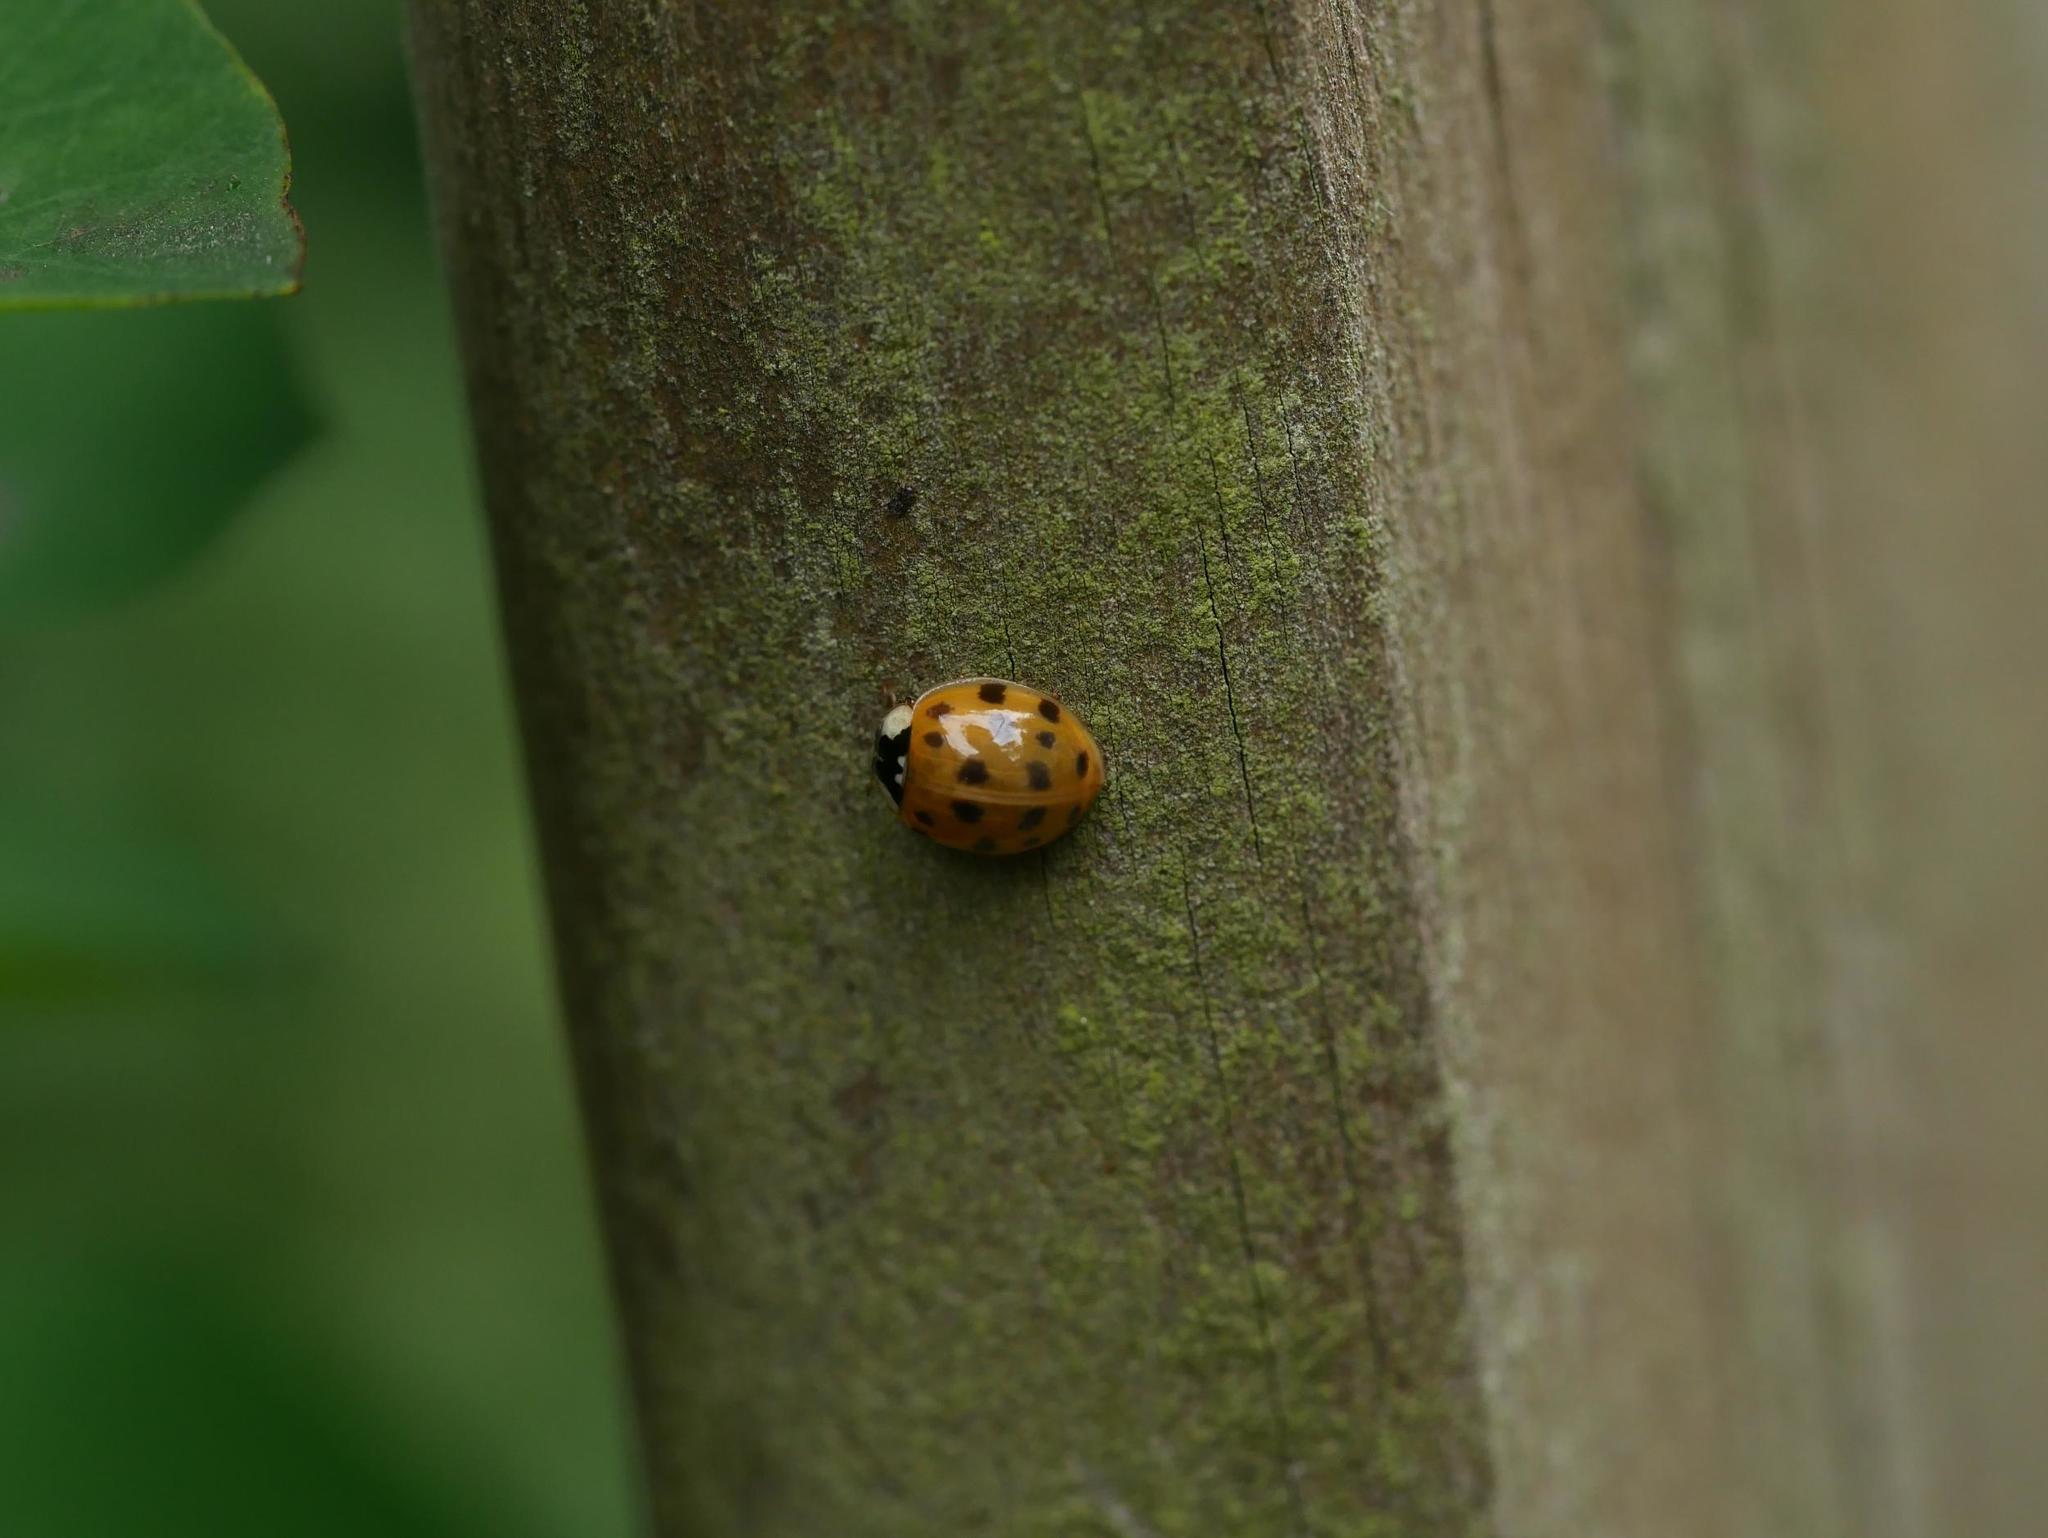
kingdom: Animalia
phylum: Arthropoda
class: Insecta
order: Coleoptera
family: Coccinellidae
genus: Harmonia
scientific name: Harmonia axyridis
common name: Harlequin ladybird
